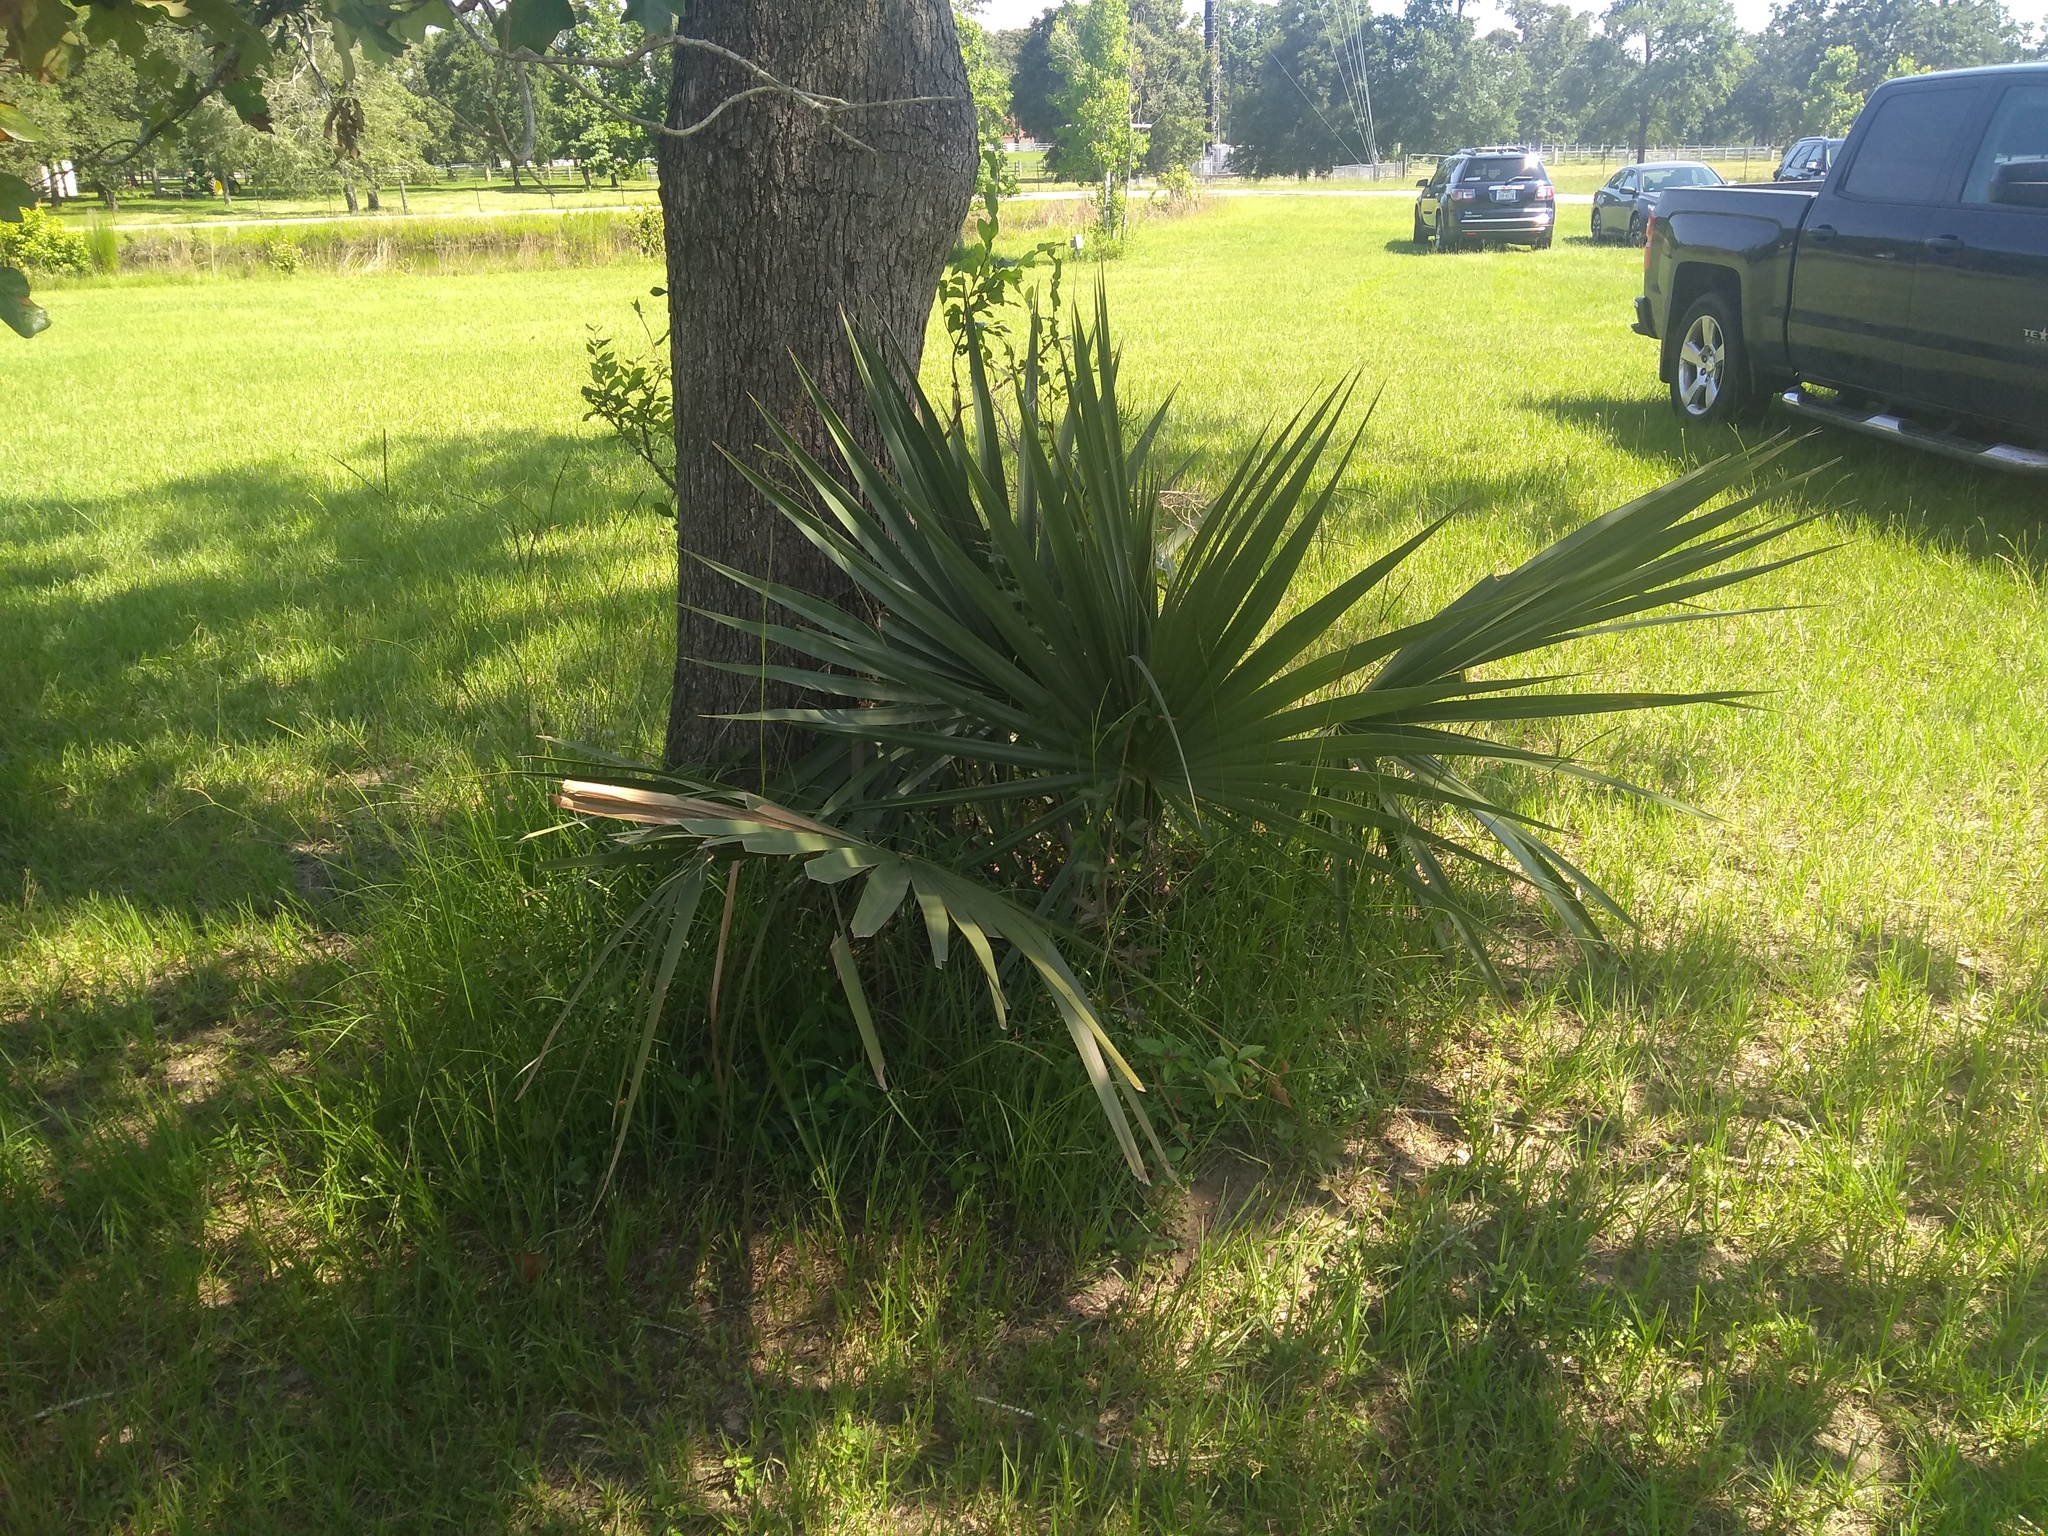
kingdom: Plantae
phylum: Tracheophyta
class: Liliopsida
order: Arecales
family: Arecaceae
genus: Sabal
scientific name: Sabal minor
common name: Dwarf palmetto
